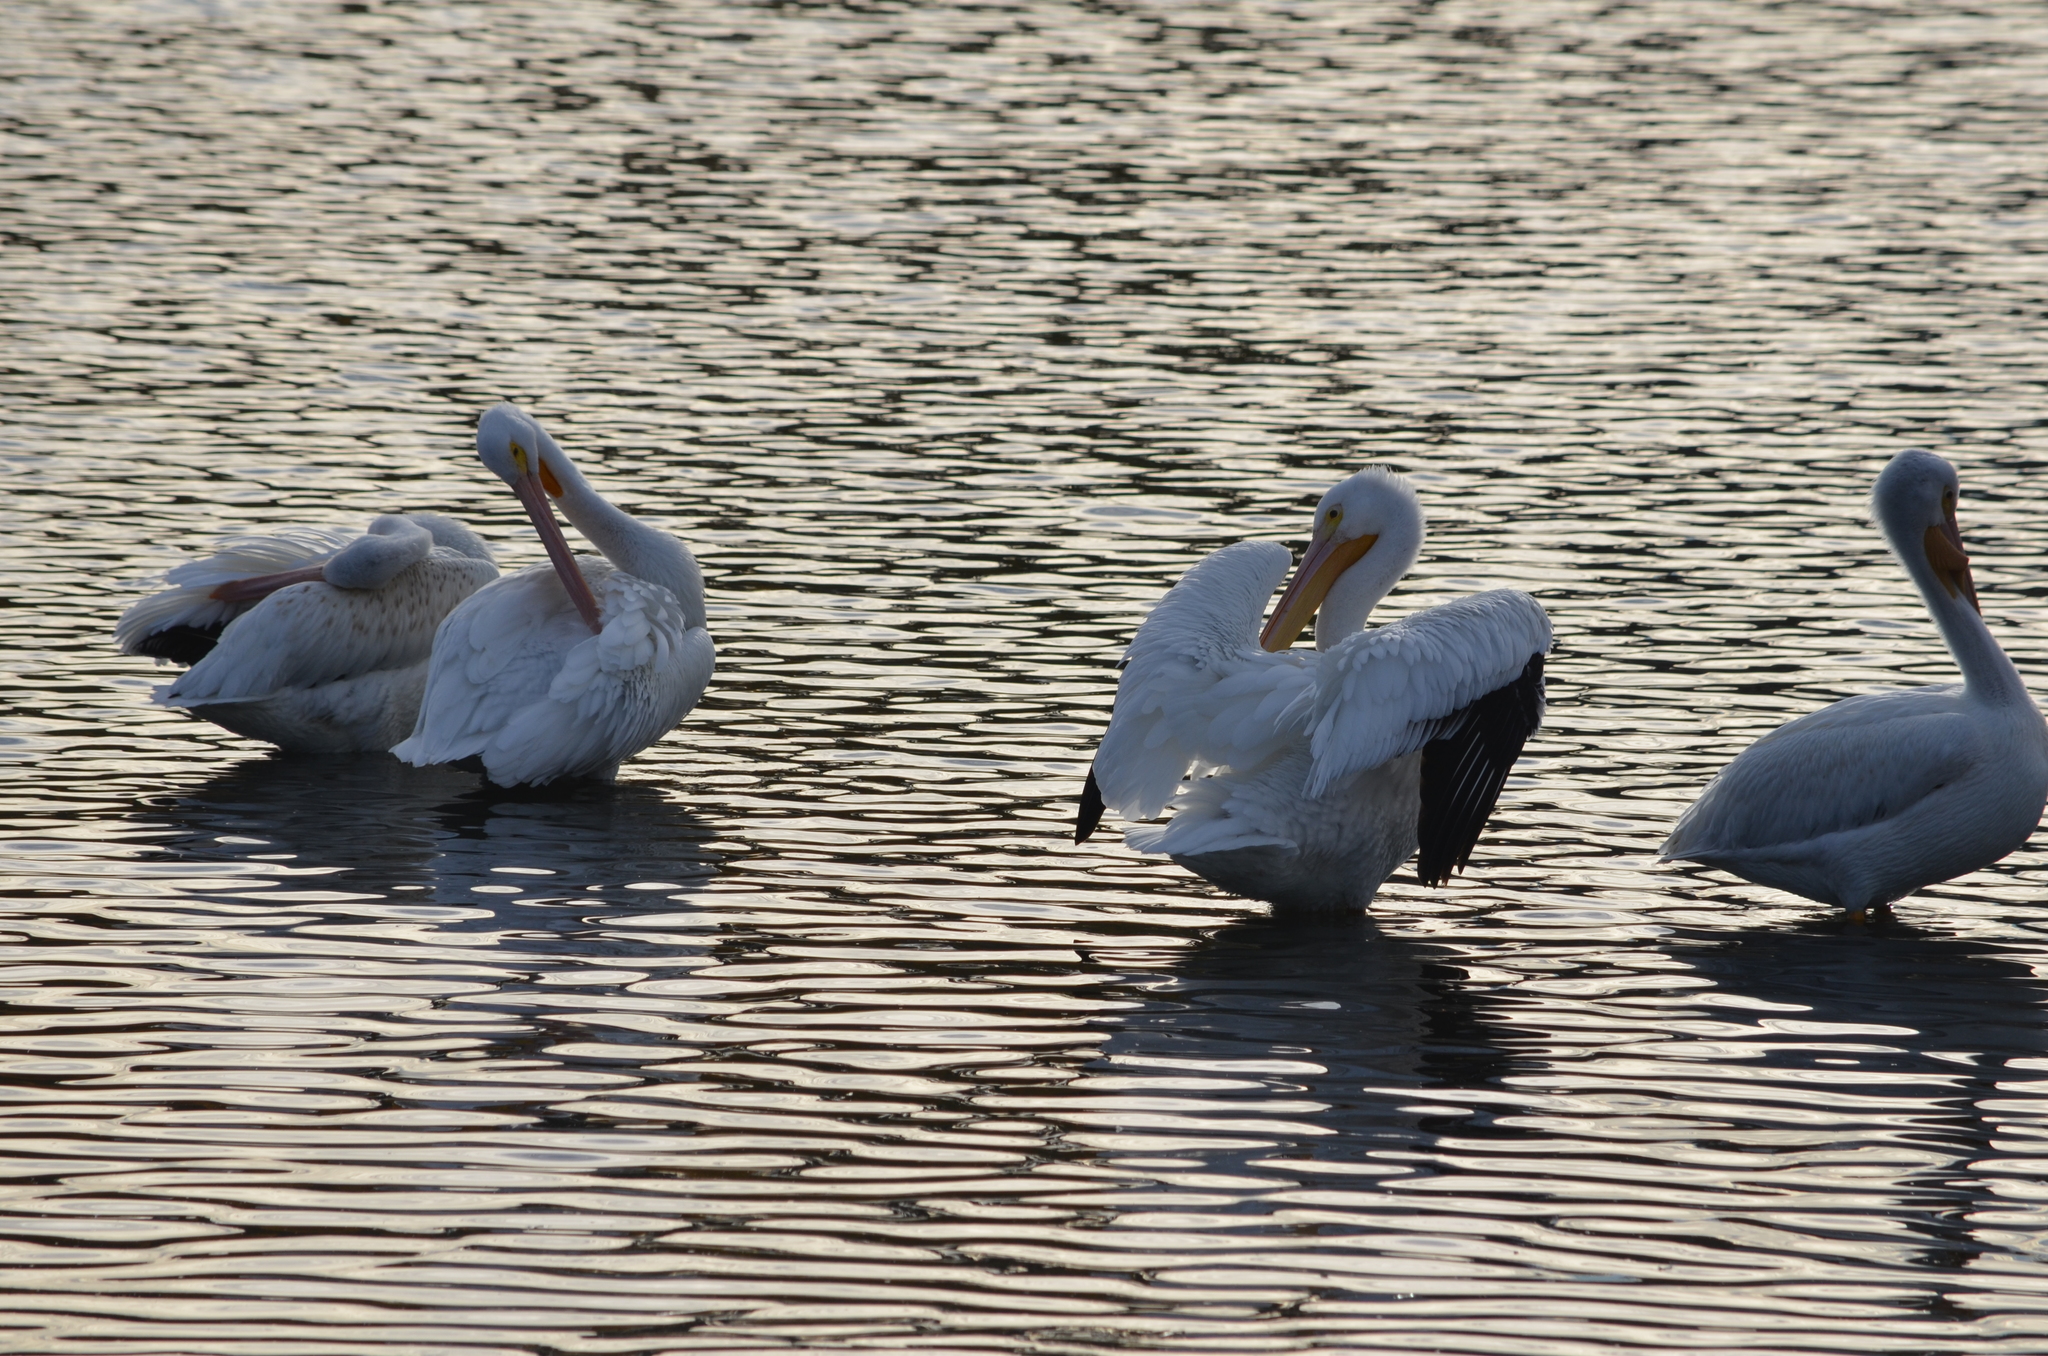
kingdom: Animalia
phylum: Chordata
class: Aves
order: Pelecaniformes
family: Pelecanidae
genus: Pelecanus
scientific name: Pelecanus erythrorhynchos
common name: American white pelican
